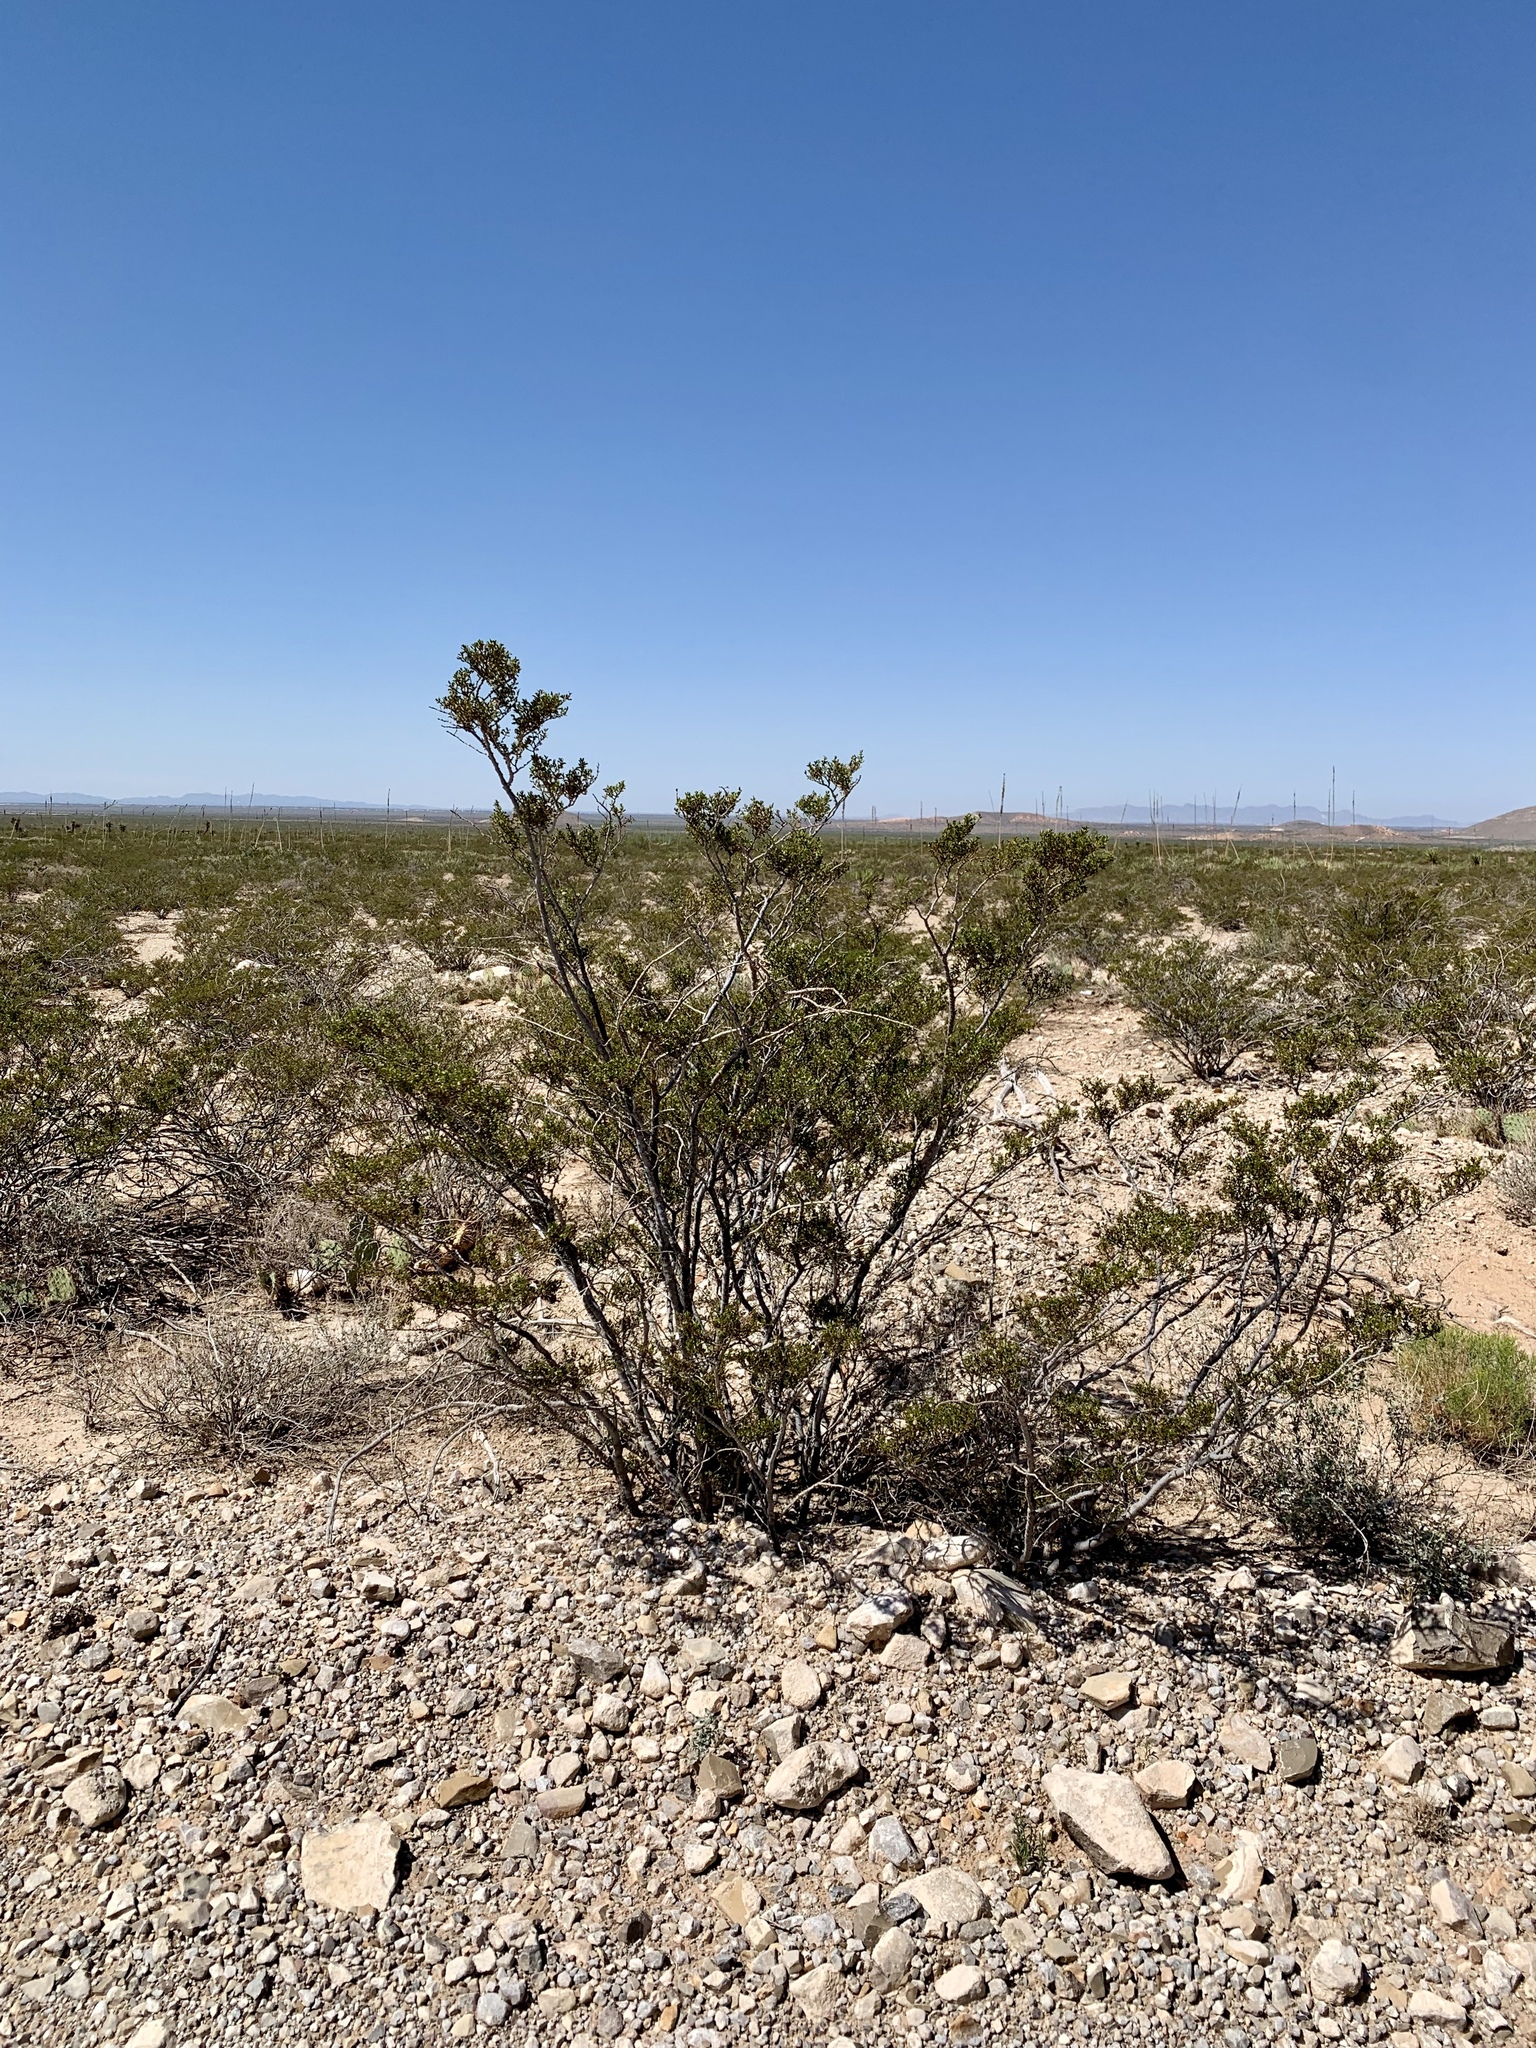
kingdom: Plantae
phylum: Tracheophyta
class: Magnoliopsida
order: Zygophyllales
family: Zygophyllaceae
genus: Larrea
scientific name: Larrea tridentata
